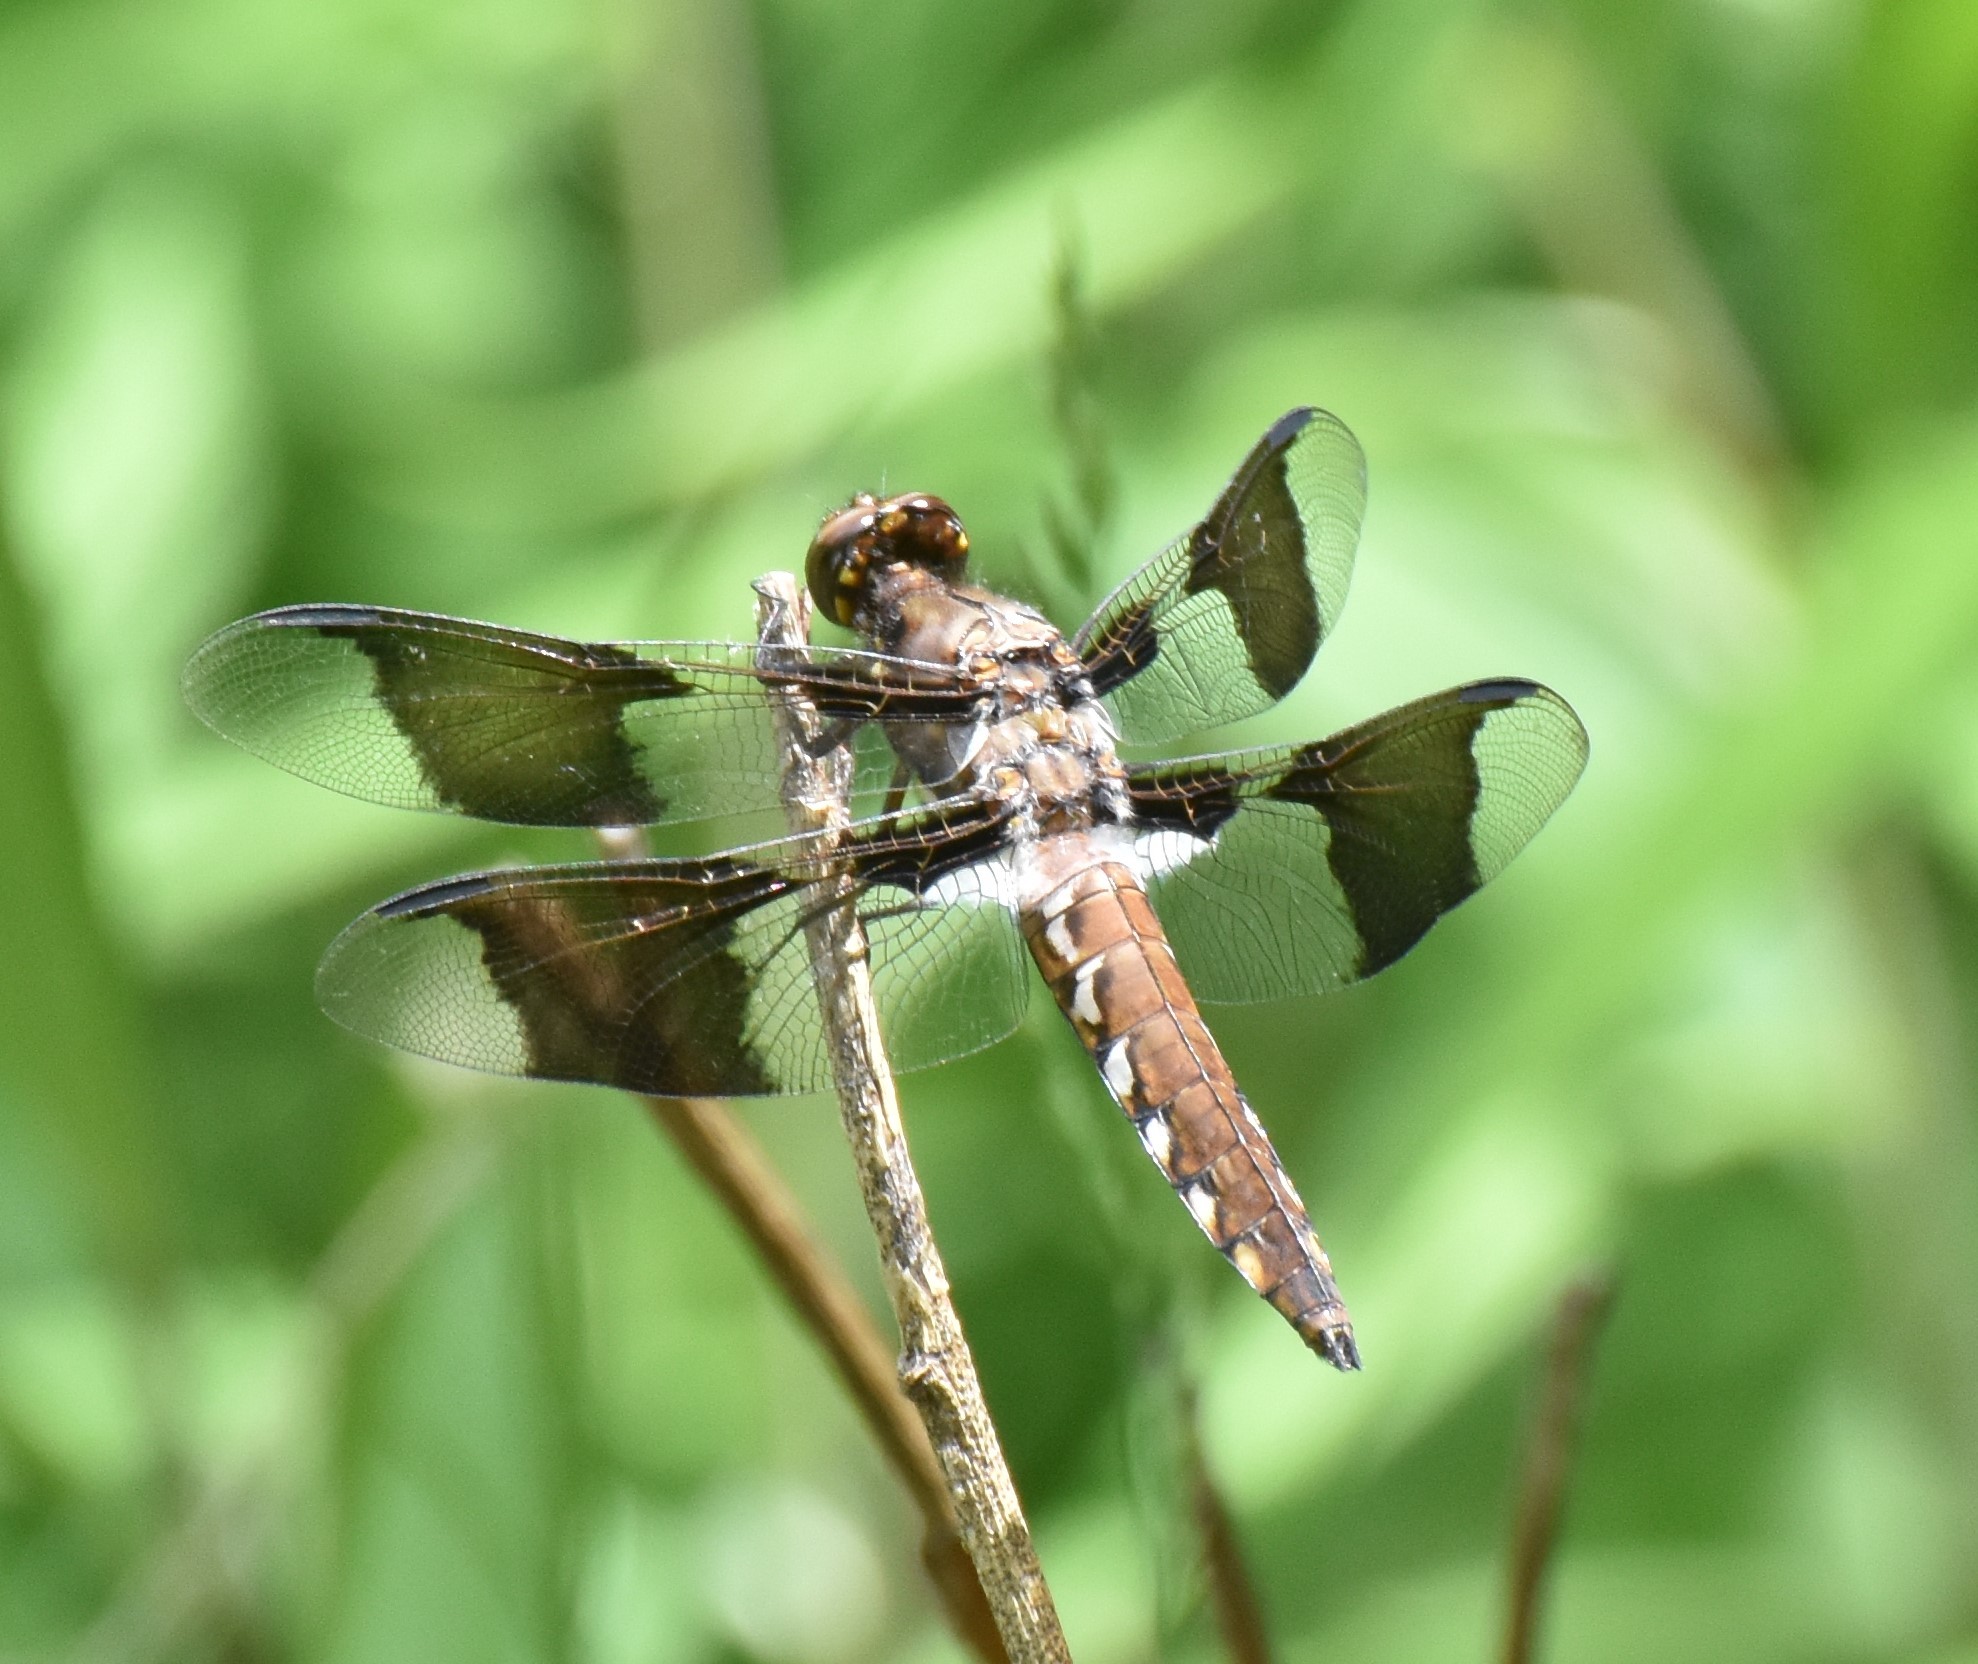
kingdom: Animalia
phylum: Arthropoda
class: Insecta
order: Odonata
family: Libellulidae
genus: Plathemis
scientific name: Plathemis lydia
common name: Common whitetail
